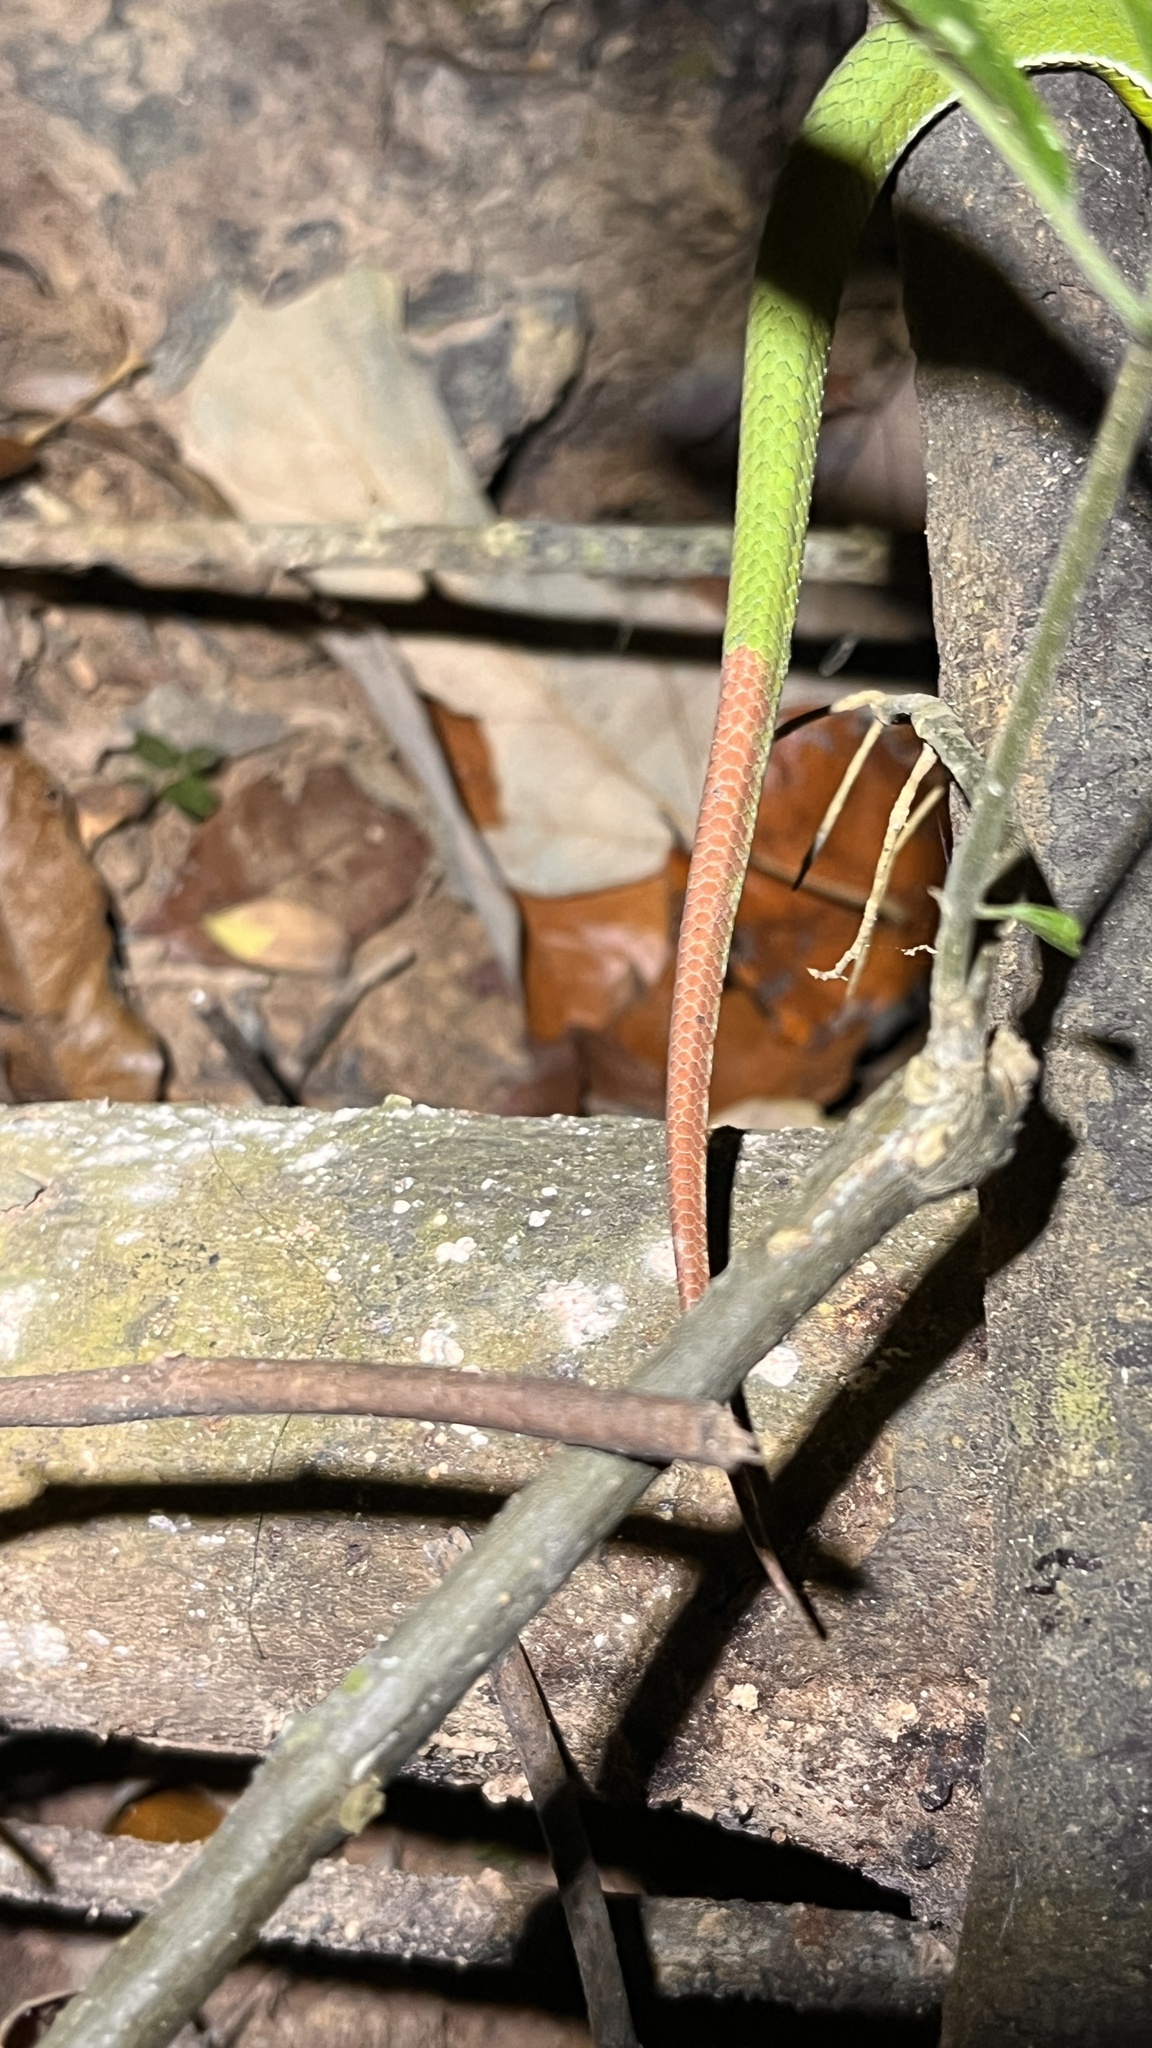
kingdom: Animalia
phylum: Chordata
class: Squamata
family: Viperidae
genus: Craspedocephalus
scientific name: Craspedocephalus rubeus
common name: Ruby-eyed green pitviper
